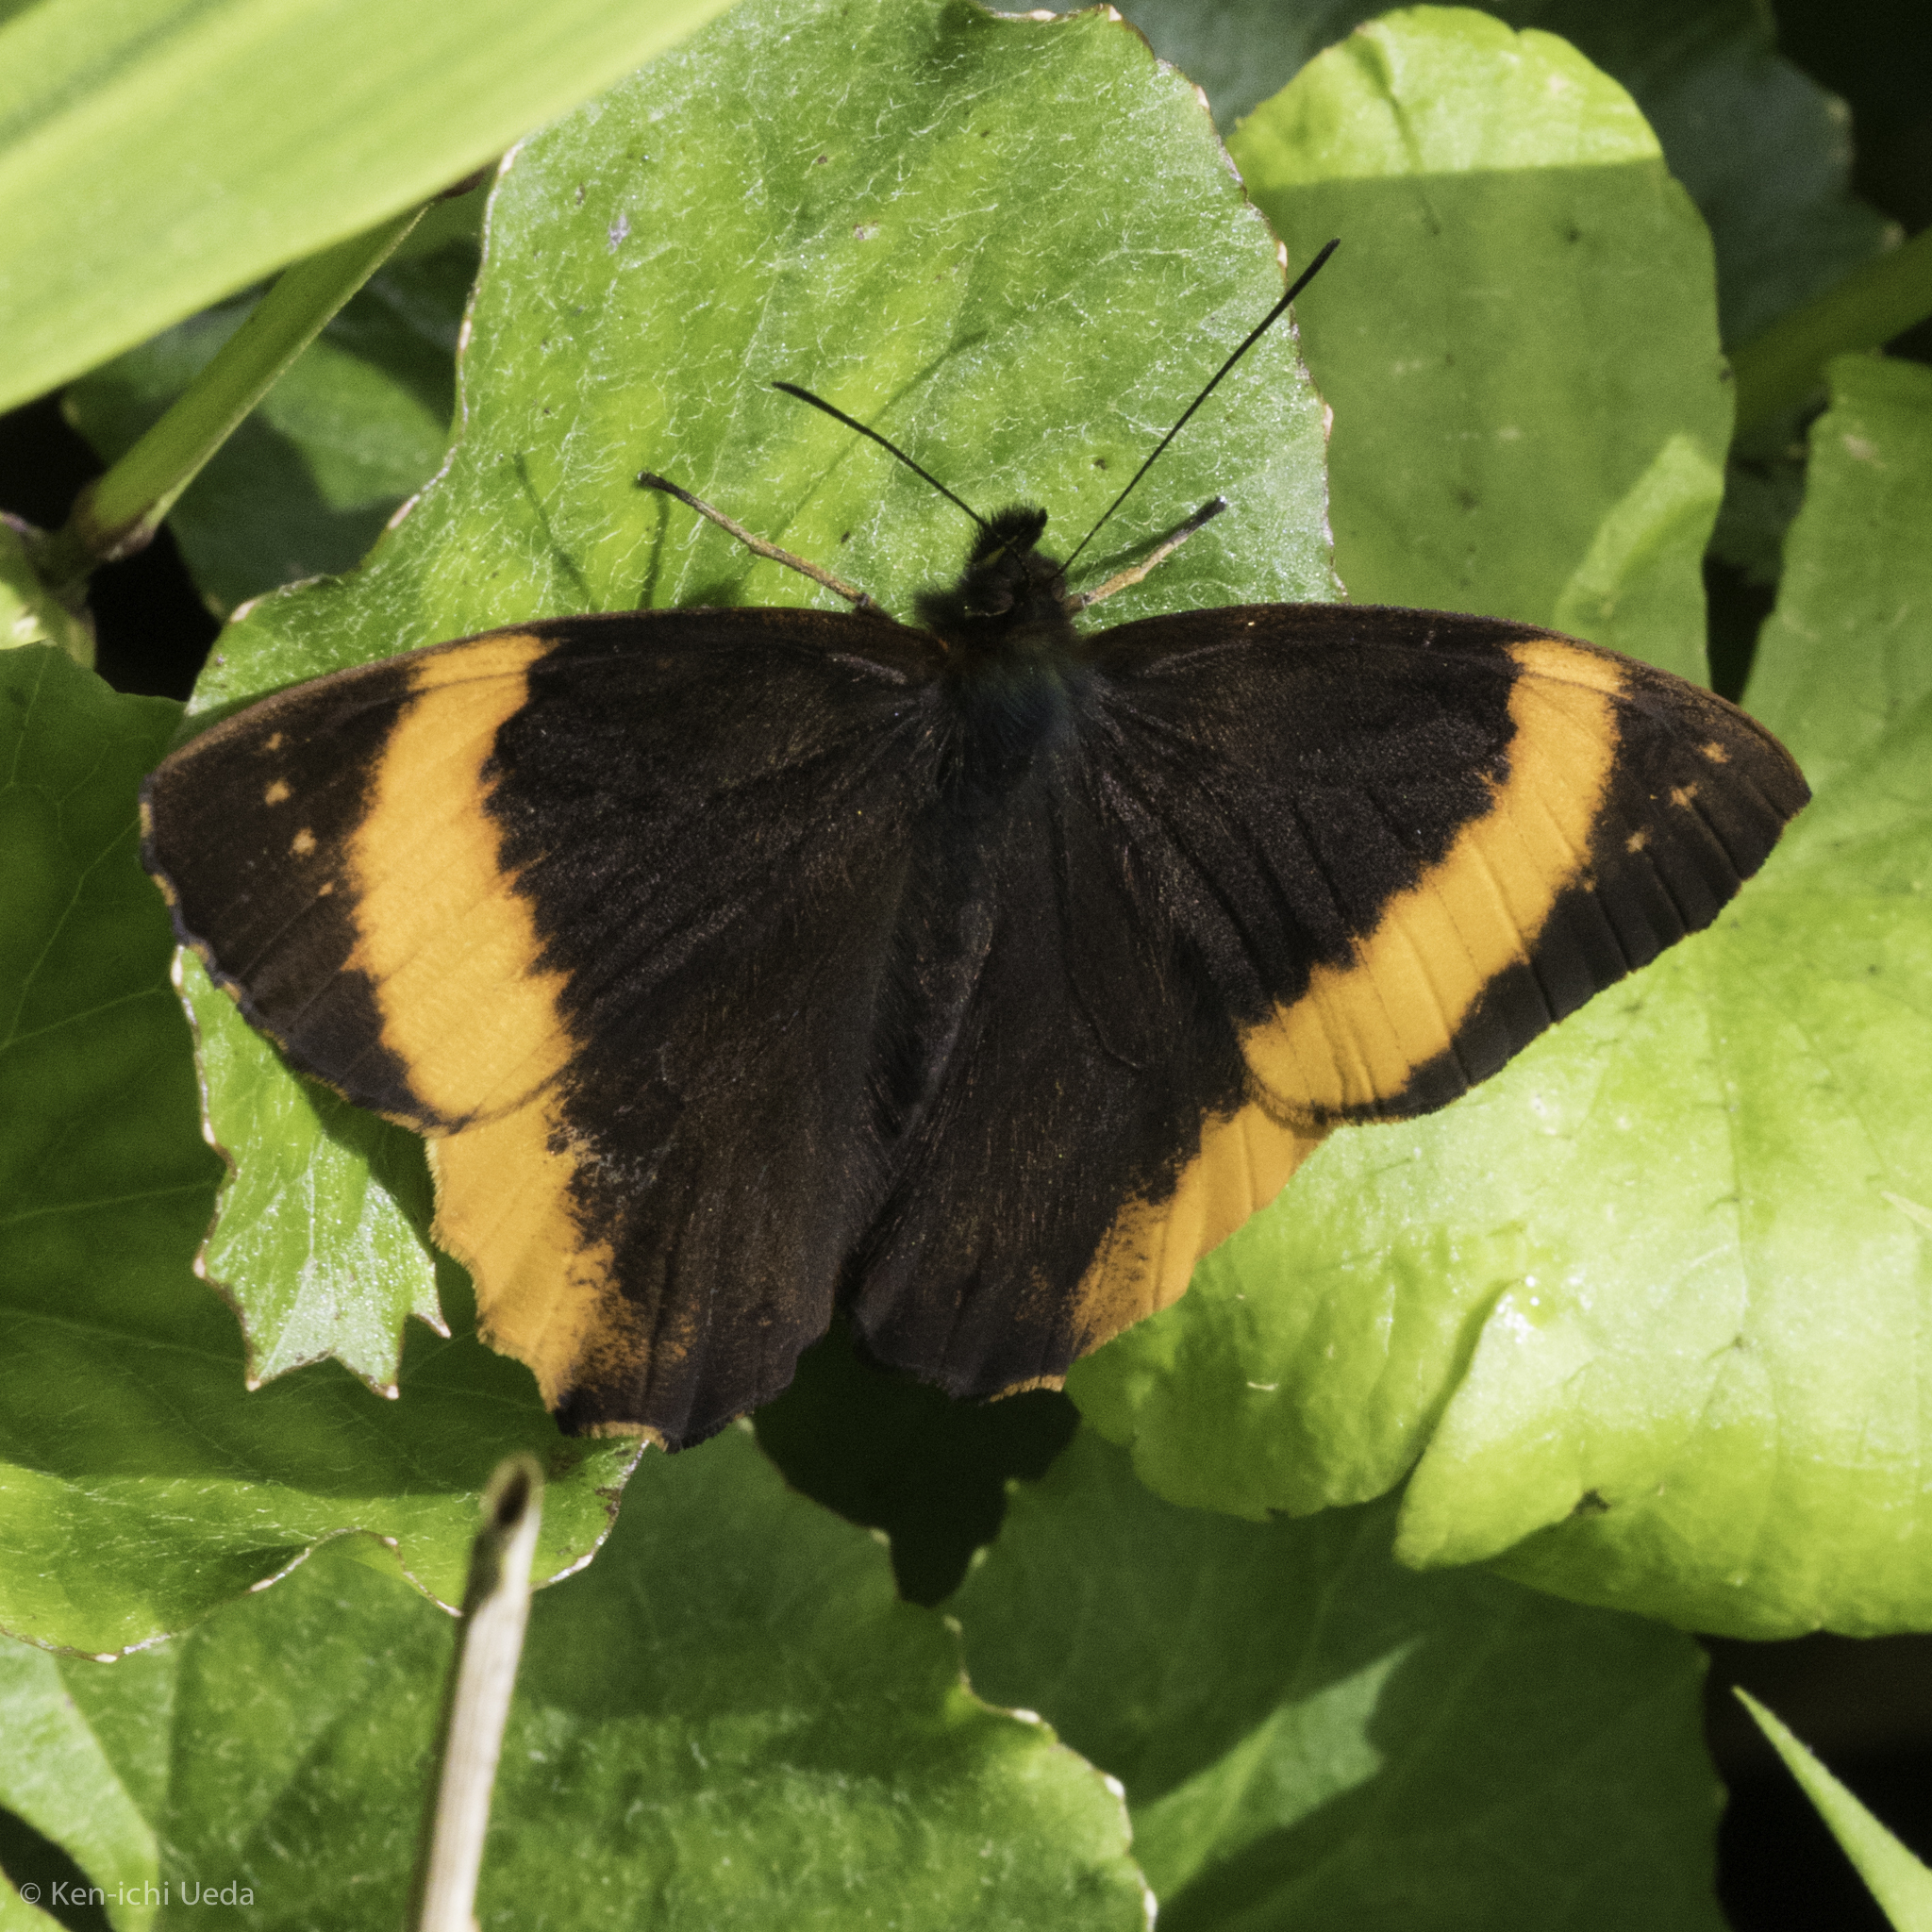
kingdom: Animalia
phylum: Arthropoda
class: Insecta
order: Lepidoptera
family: Nymphalidae
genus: Pedaliodes
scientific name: Pedaliodes triaria
